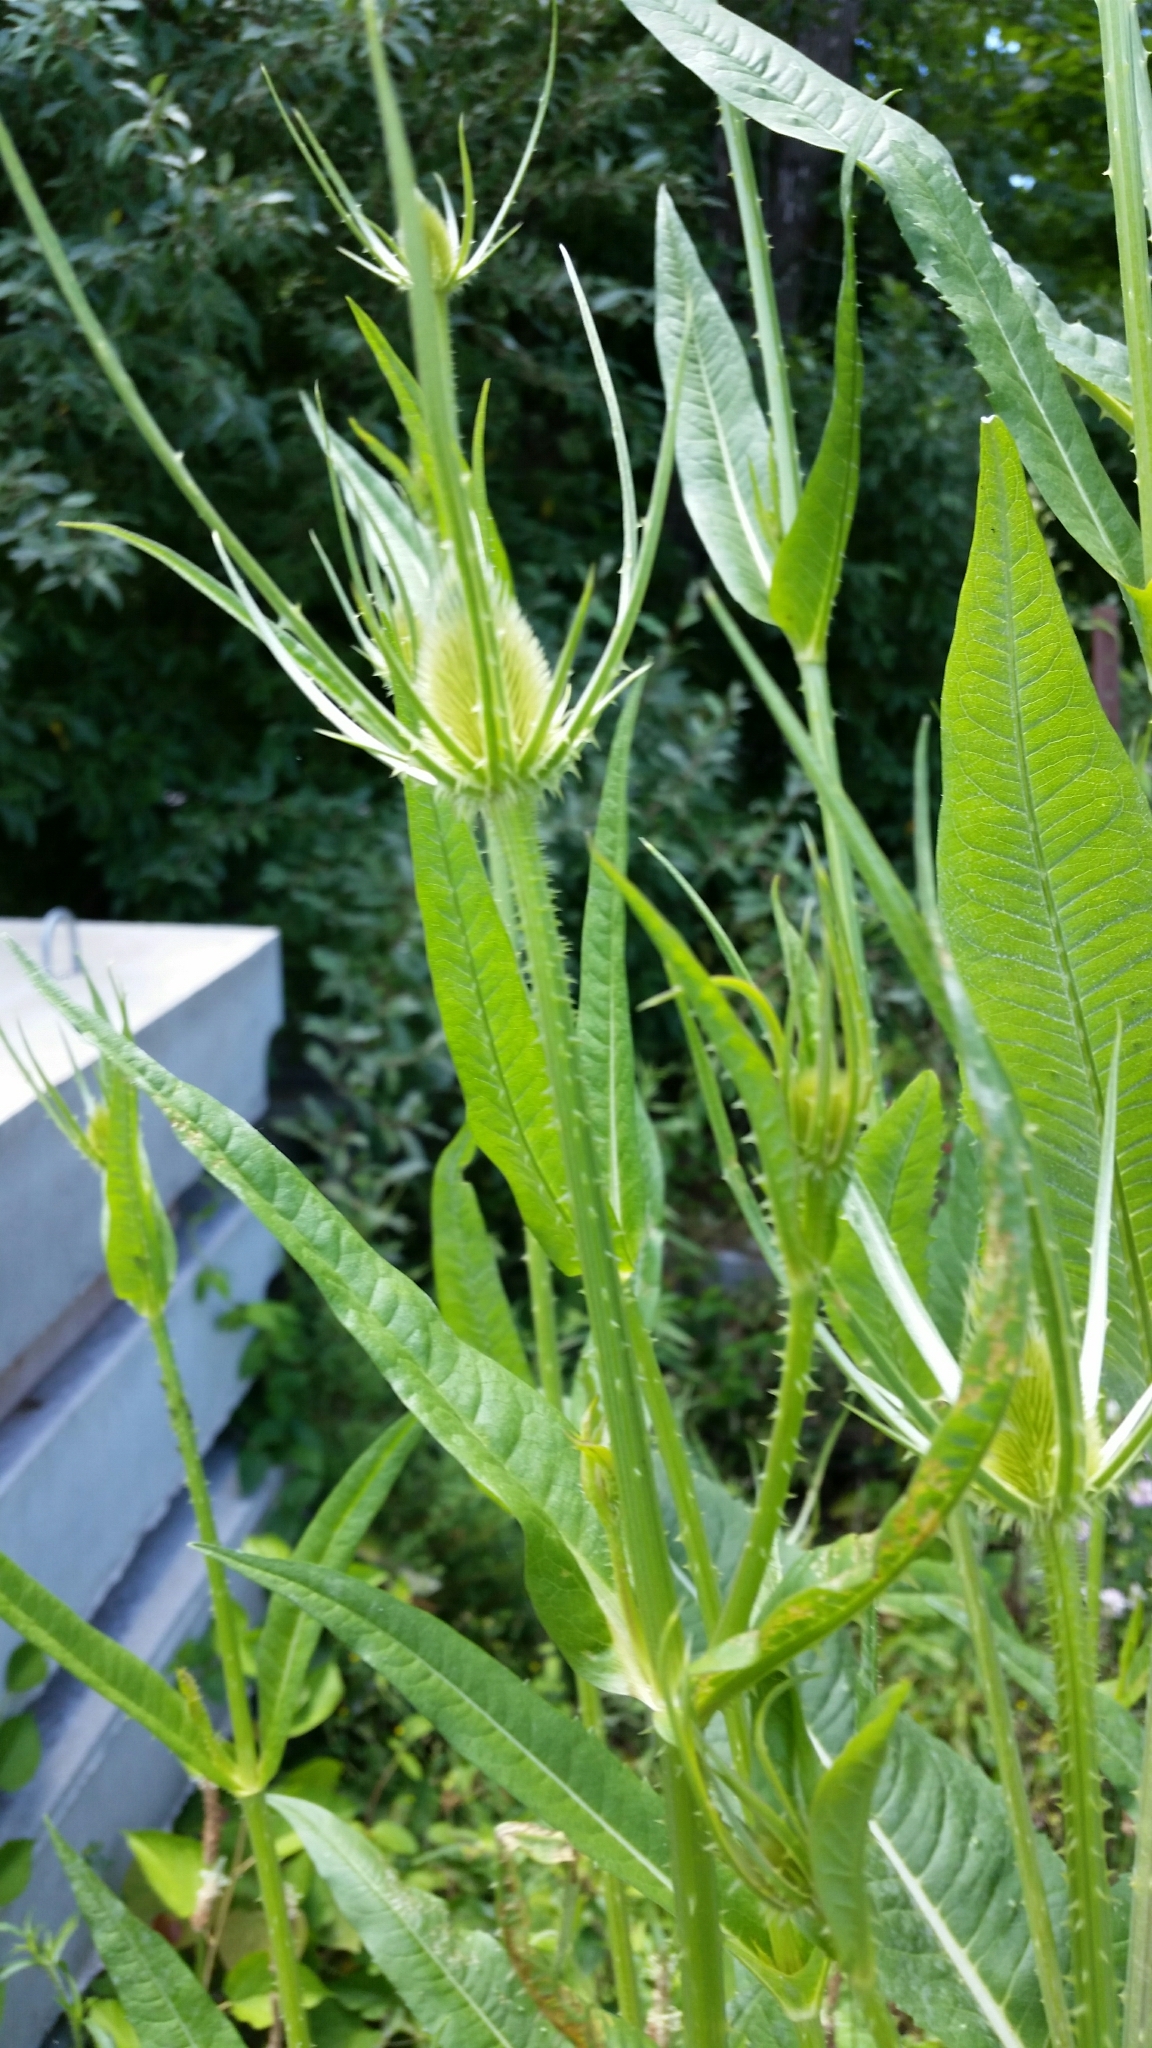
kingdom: Plantae
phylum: Tracheophyta
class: Magnoliopsida
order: Dipsacales
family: Caprifoliaceae
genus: Dipsacus
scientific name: Dipsacus fullonum
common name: Teasel
